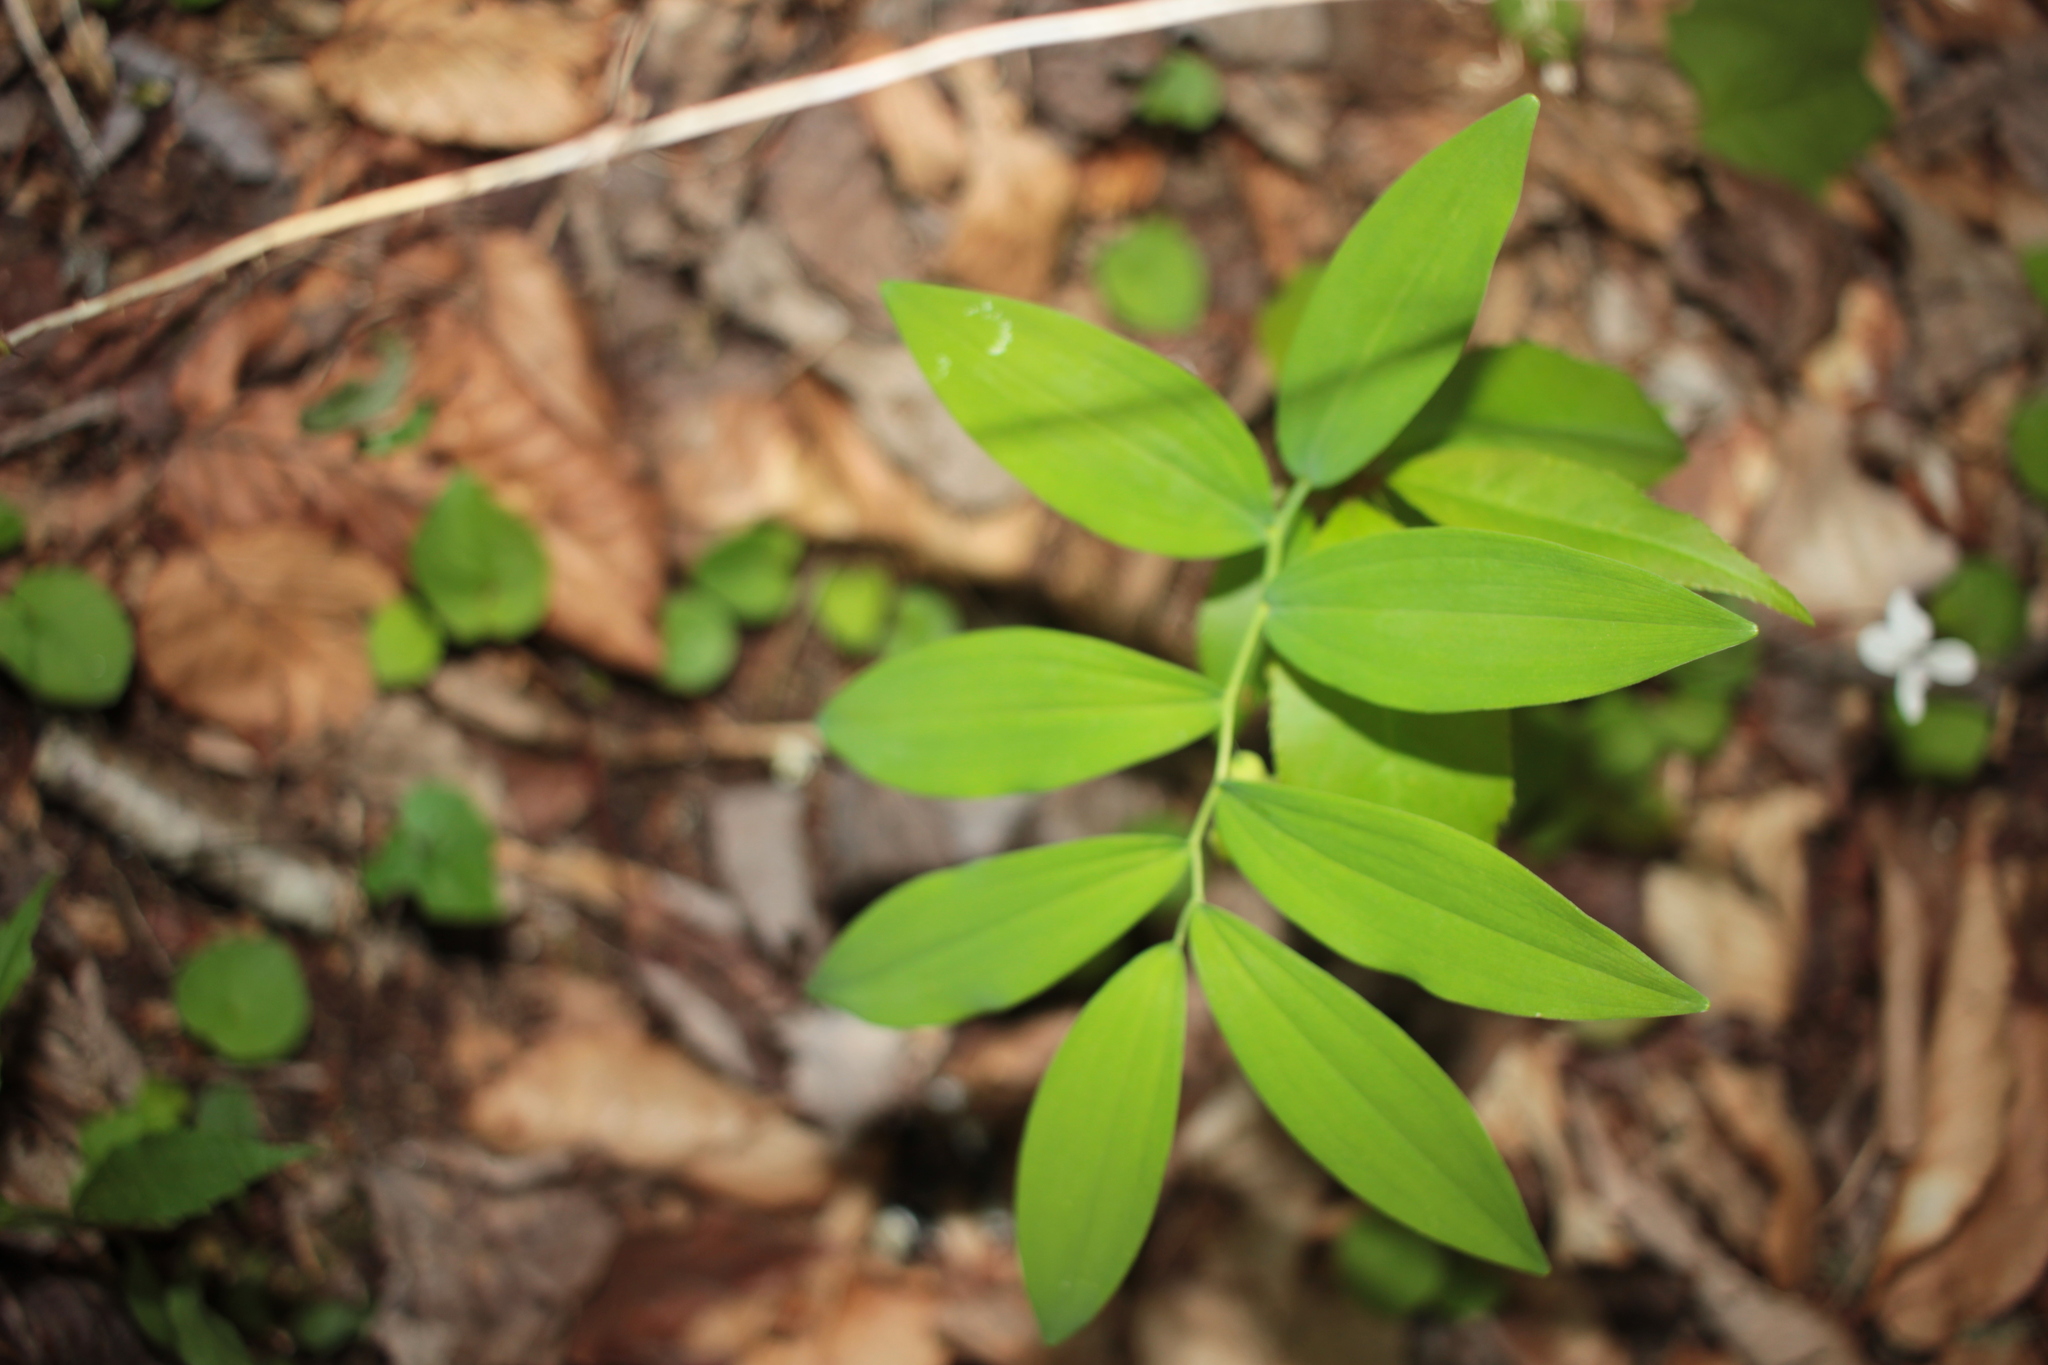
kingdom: Plantae
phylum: Tracheophyta
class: Liliopsida
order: Asparagales
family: Asparagaceae
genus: Polygonatum
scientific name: Polygonatum pubescens
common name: Downy solomon's seal
